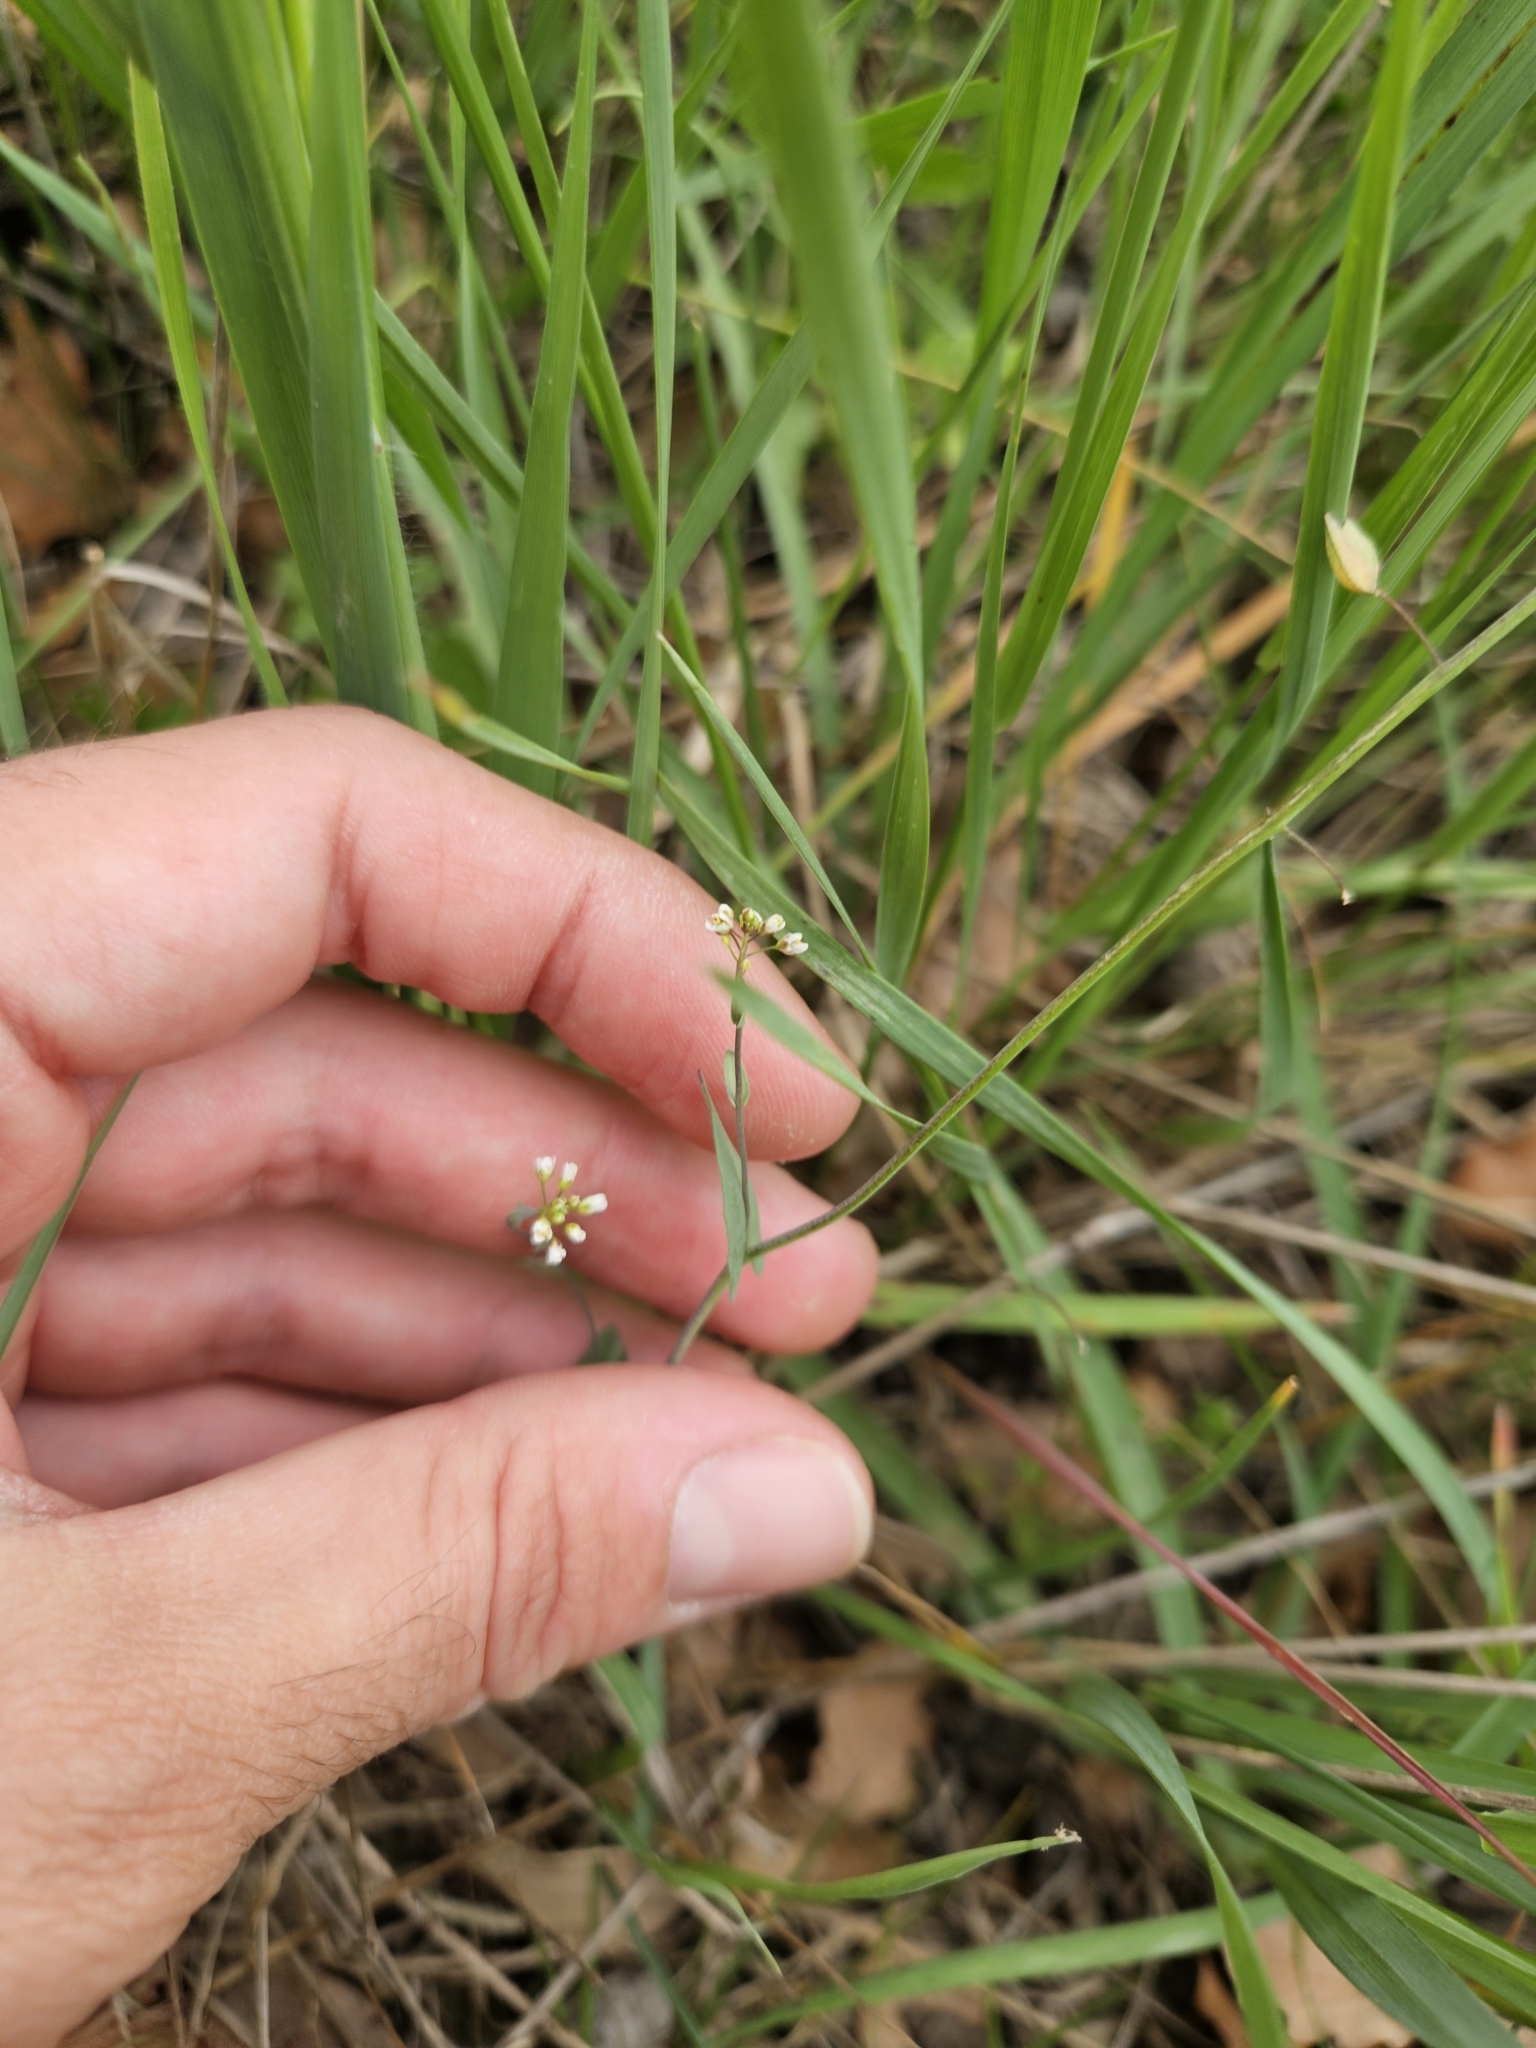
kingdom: Plantae
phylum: Tracheophyta
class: Magnoliopsida
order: Brassicales
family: Brassicaceae
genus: Draba
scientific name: Draba verna
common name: Spring draba
